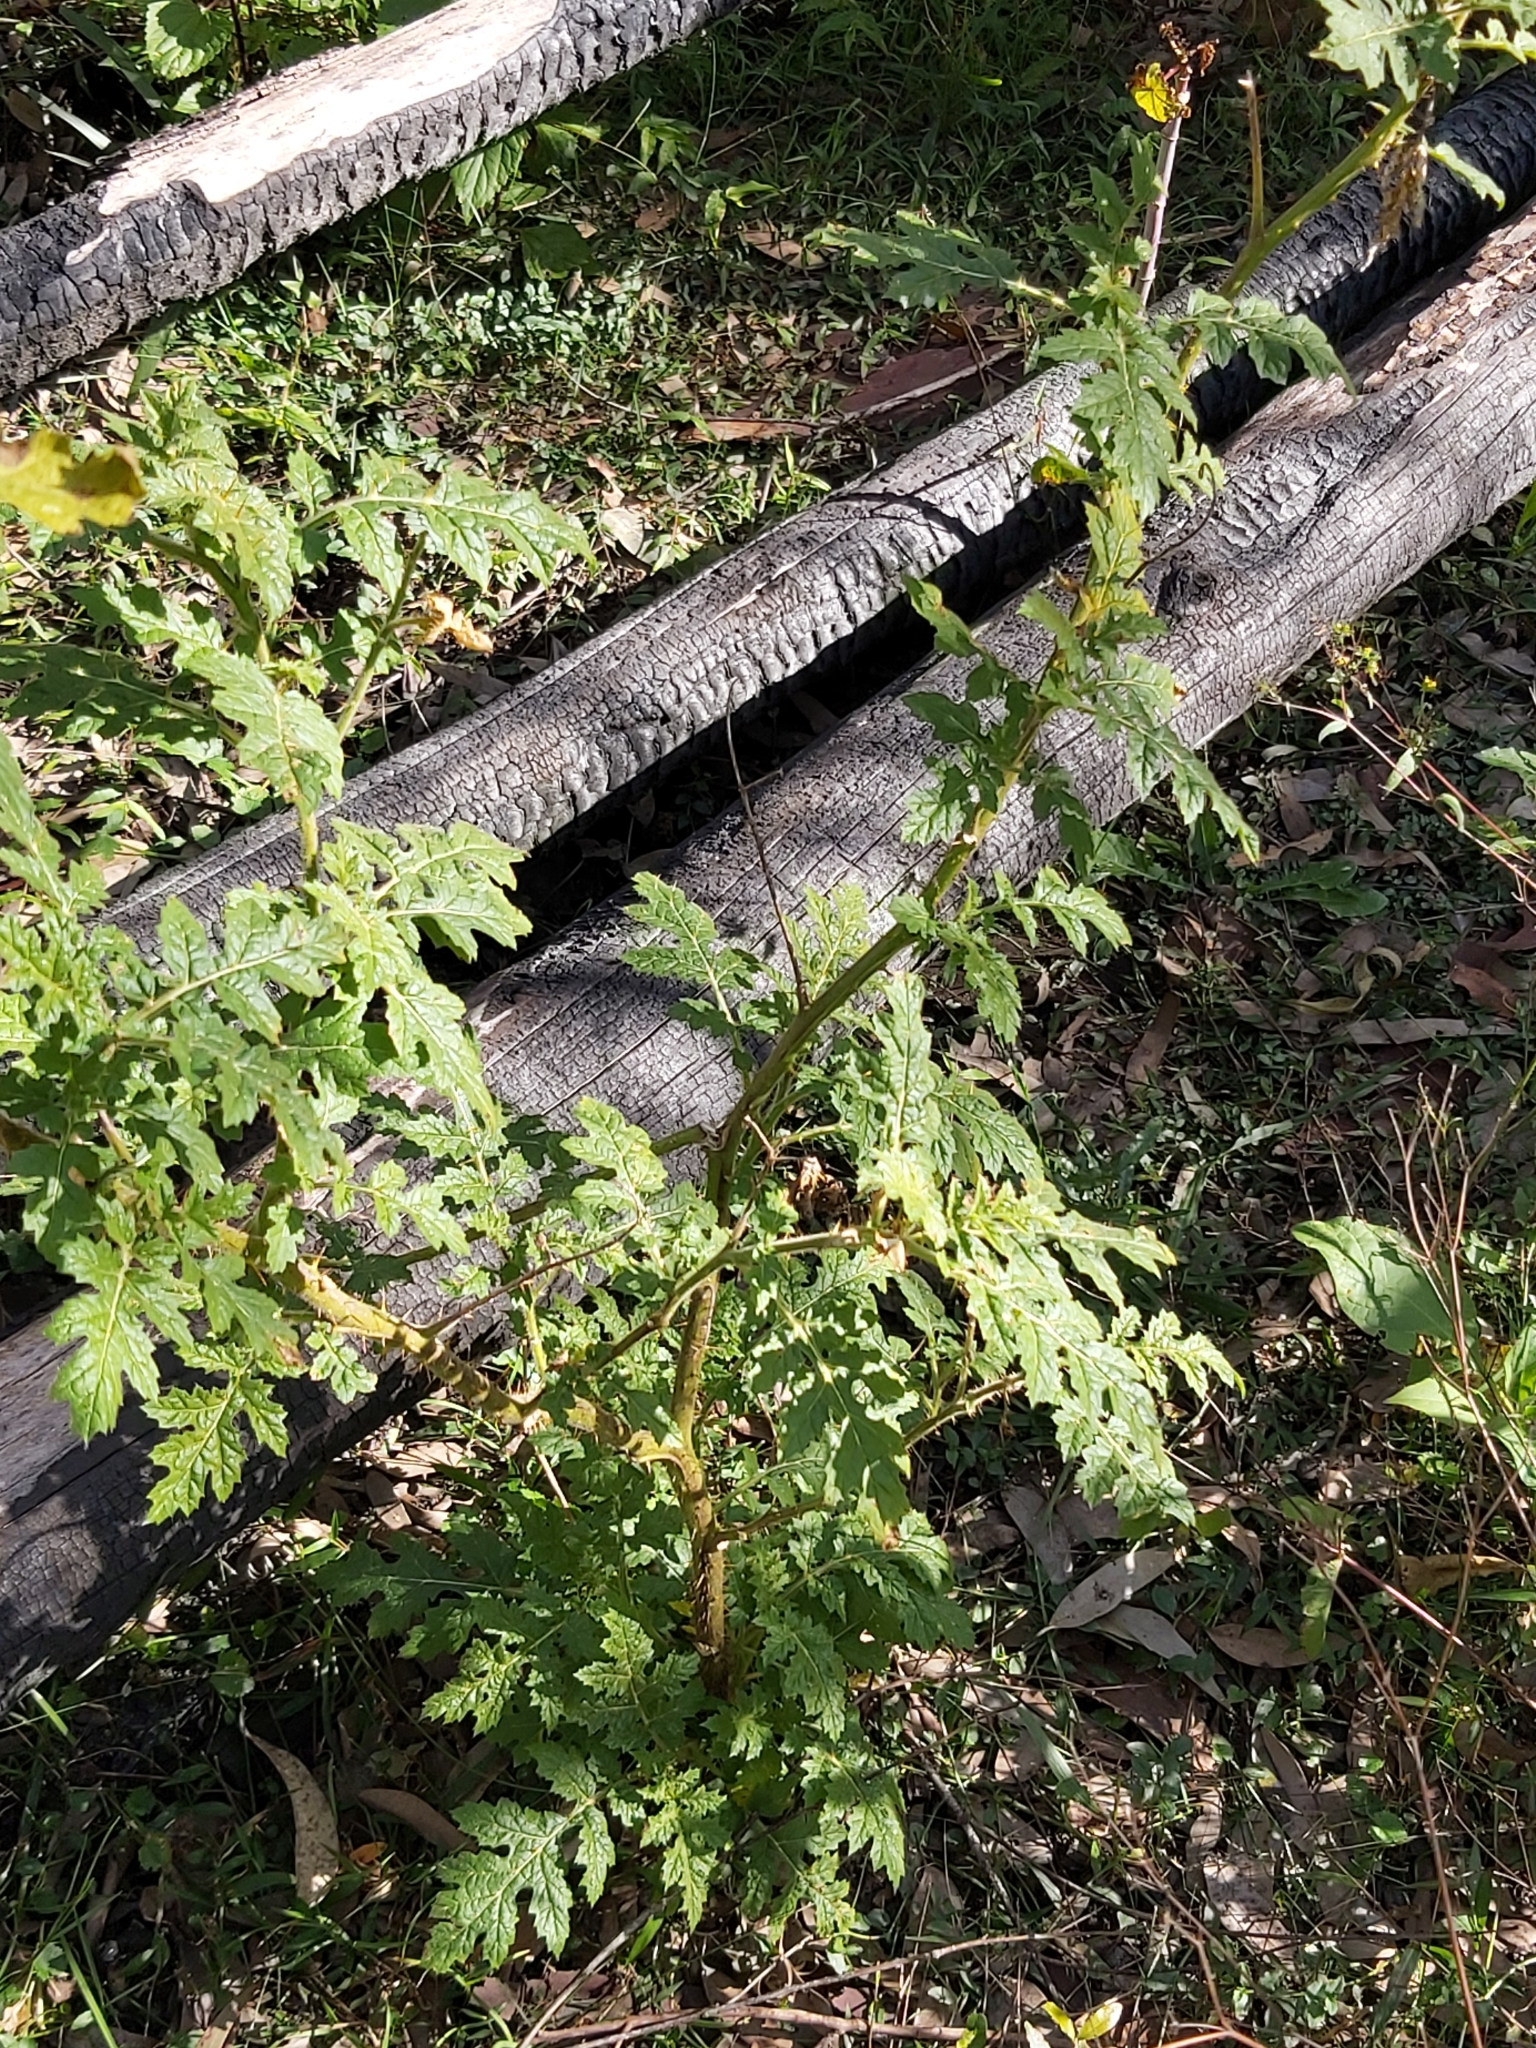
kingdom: Plantae
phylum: Tracheophyta
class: Magnoliopsida
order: Solanales
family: Solanaceae
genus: Solanum
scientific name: Solanum sisymbriifolium
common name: Red buffalo-bur
